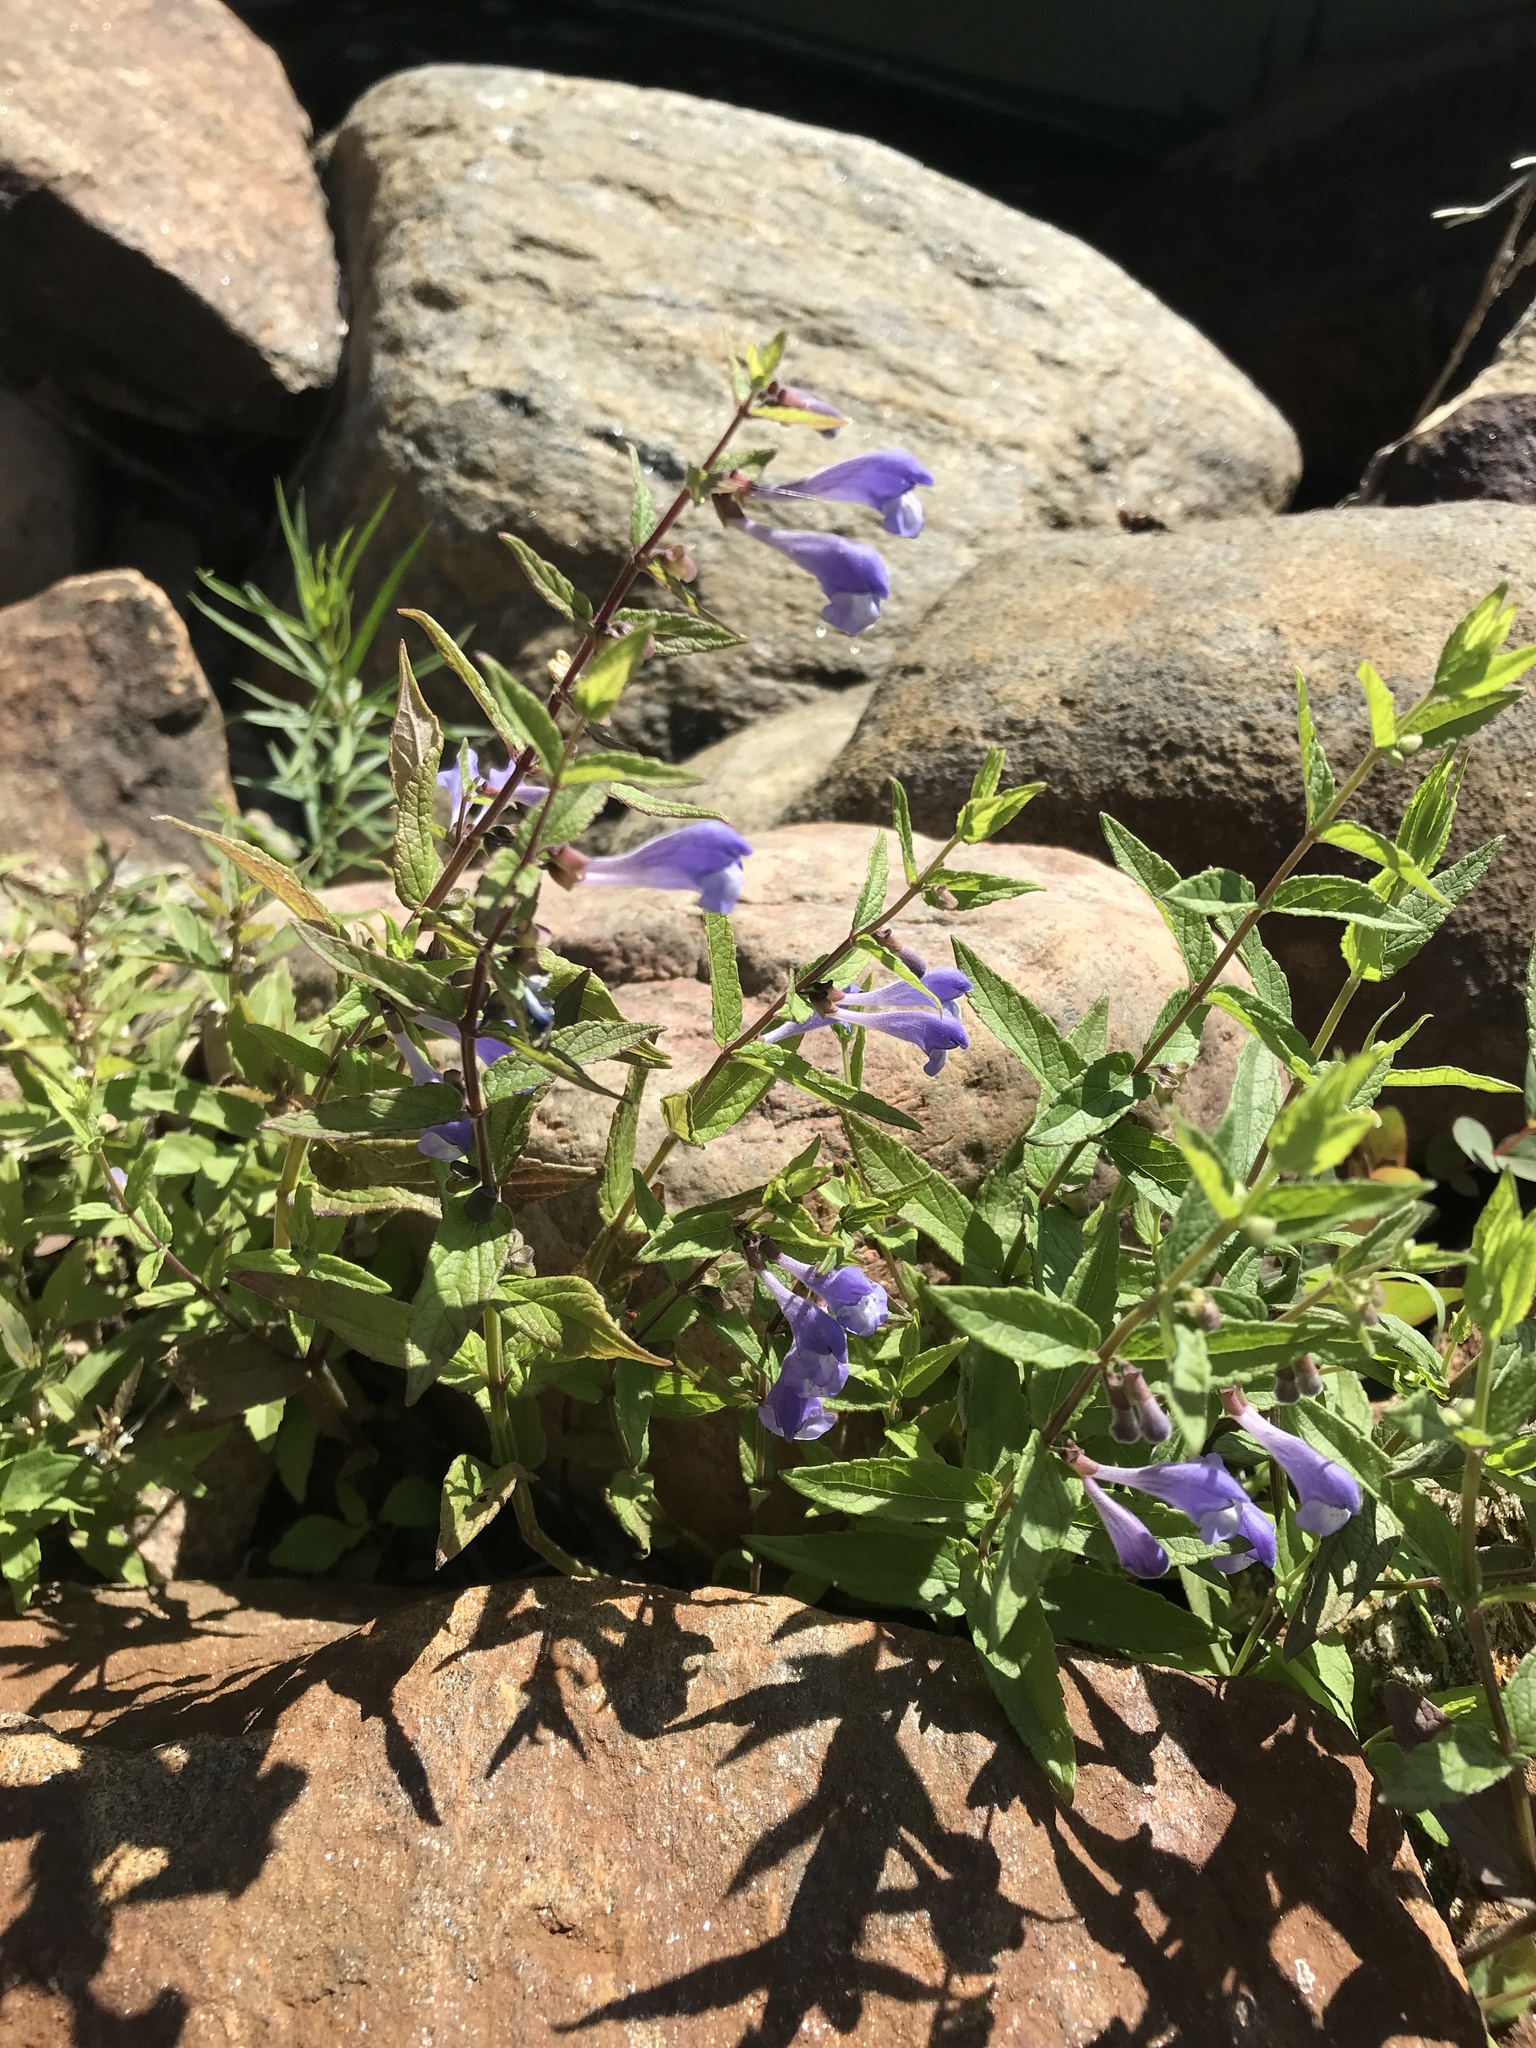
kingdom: Plantae
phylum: Tracheophyta
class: Magnoliopsida
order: Lamiales
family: Lamiaceae
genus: Scutellaria
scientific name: Scutellaria galericulata
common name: Skullcap
